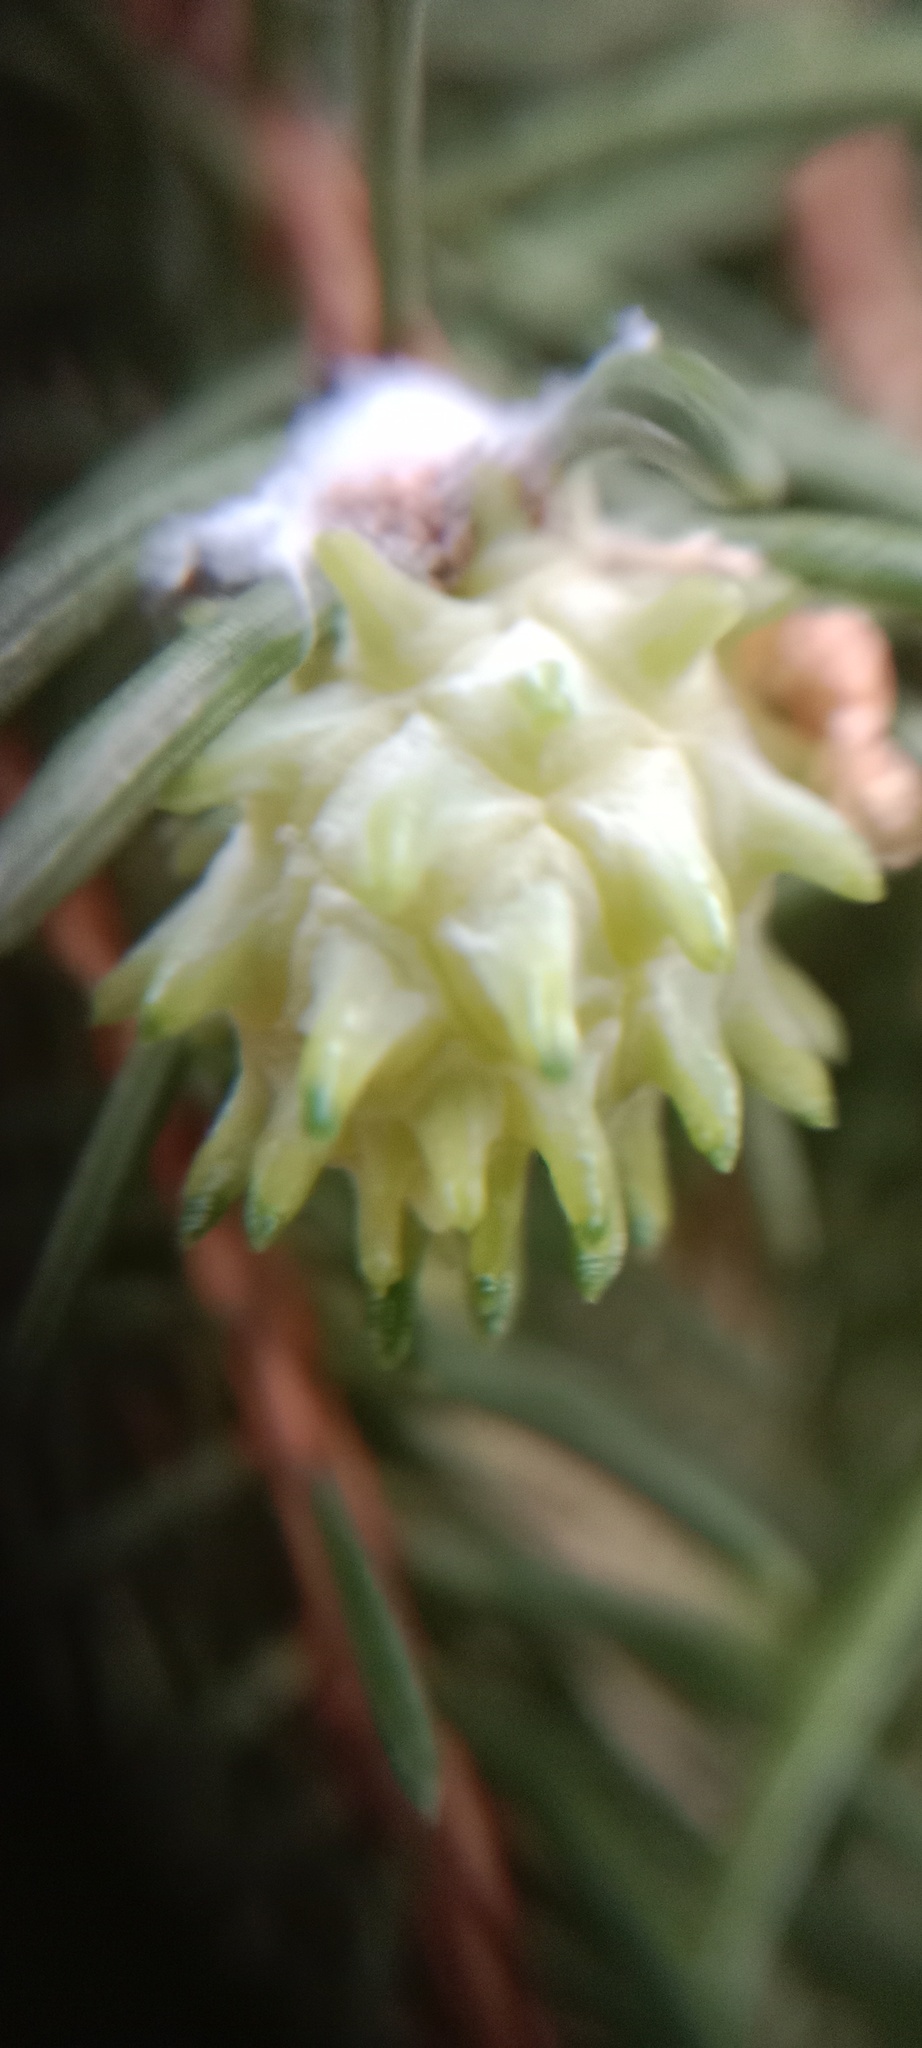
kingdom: Animalia
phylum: Arthropoda
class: Insecta
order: Hemiptera
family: Adelgidae
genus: Adelges
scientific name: Adelges abietis
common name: Eastern spruce gall adelgid
